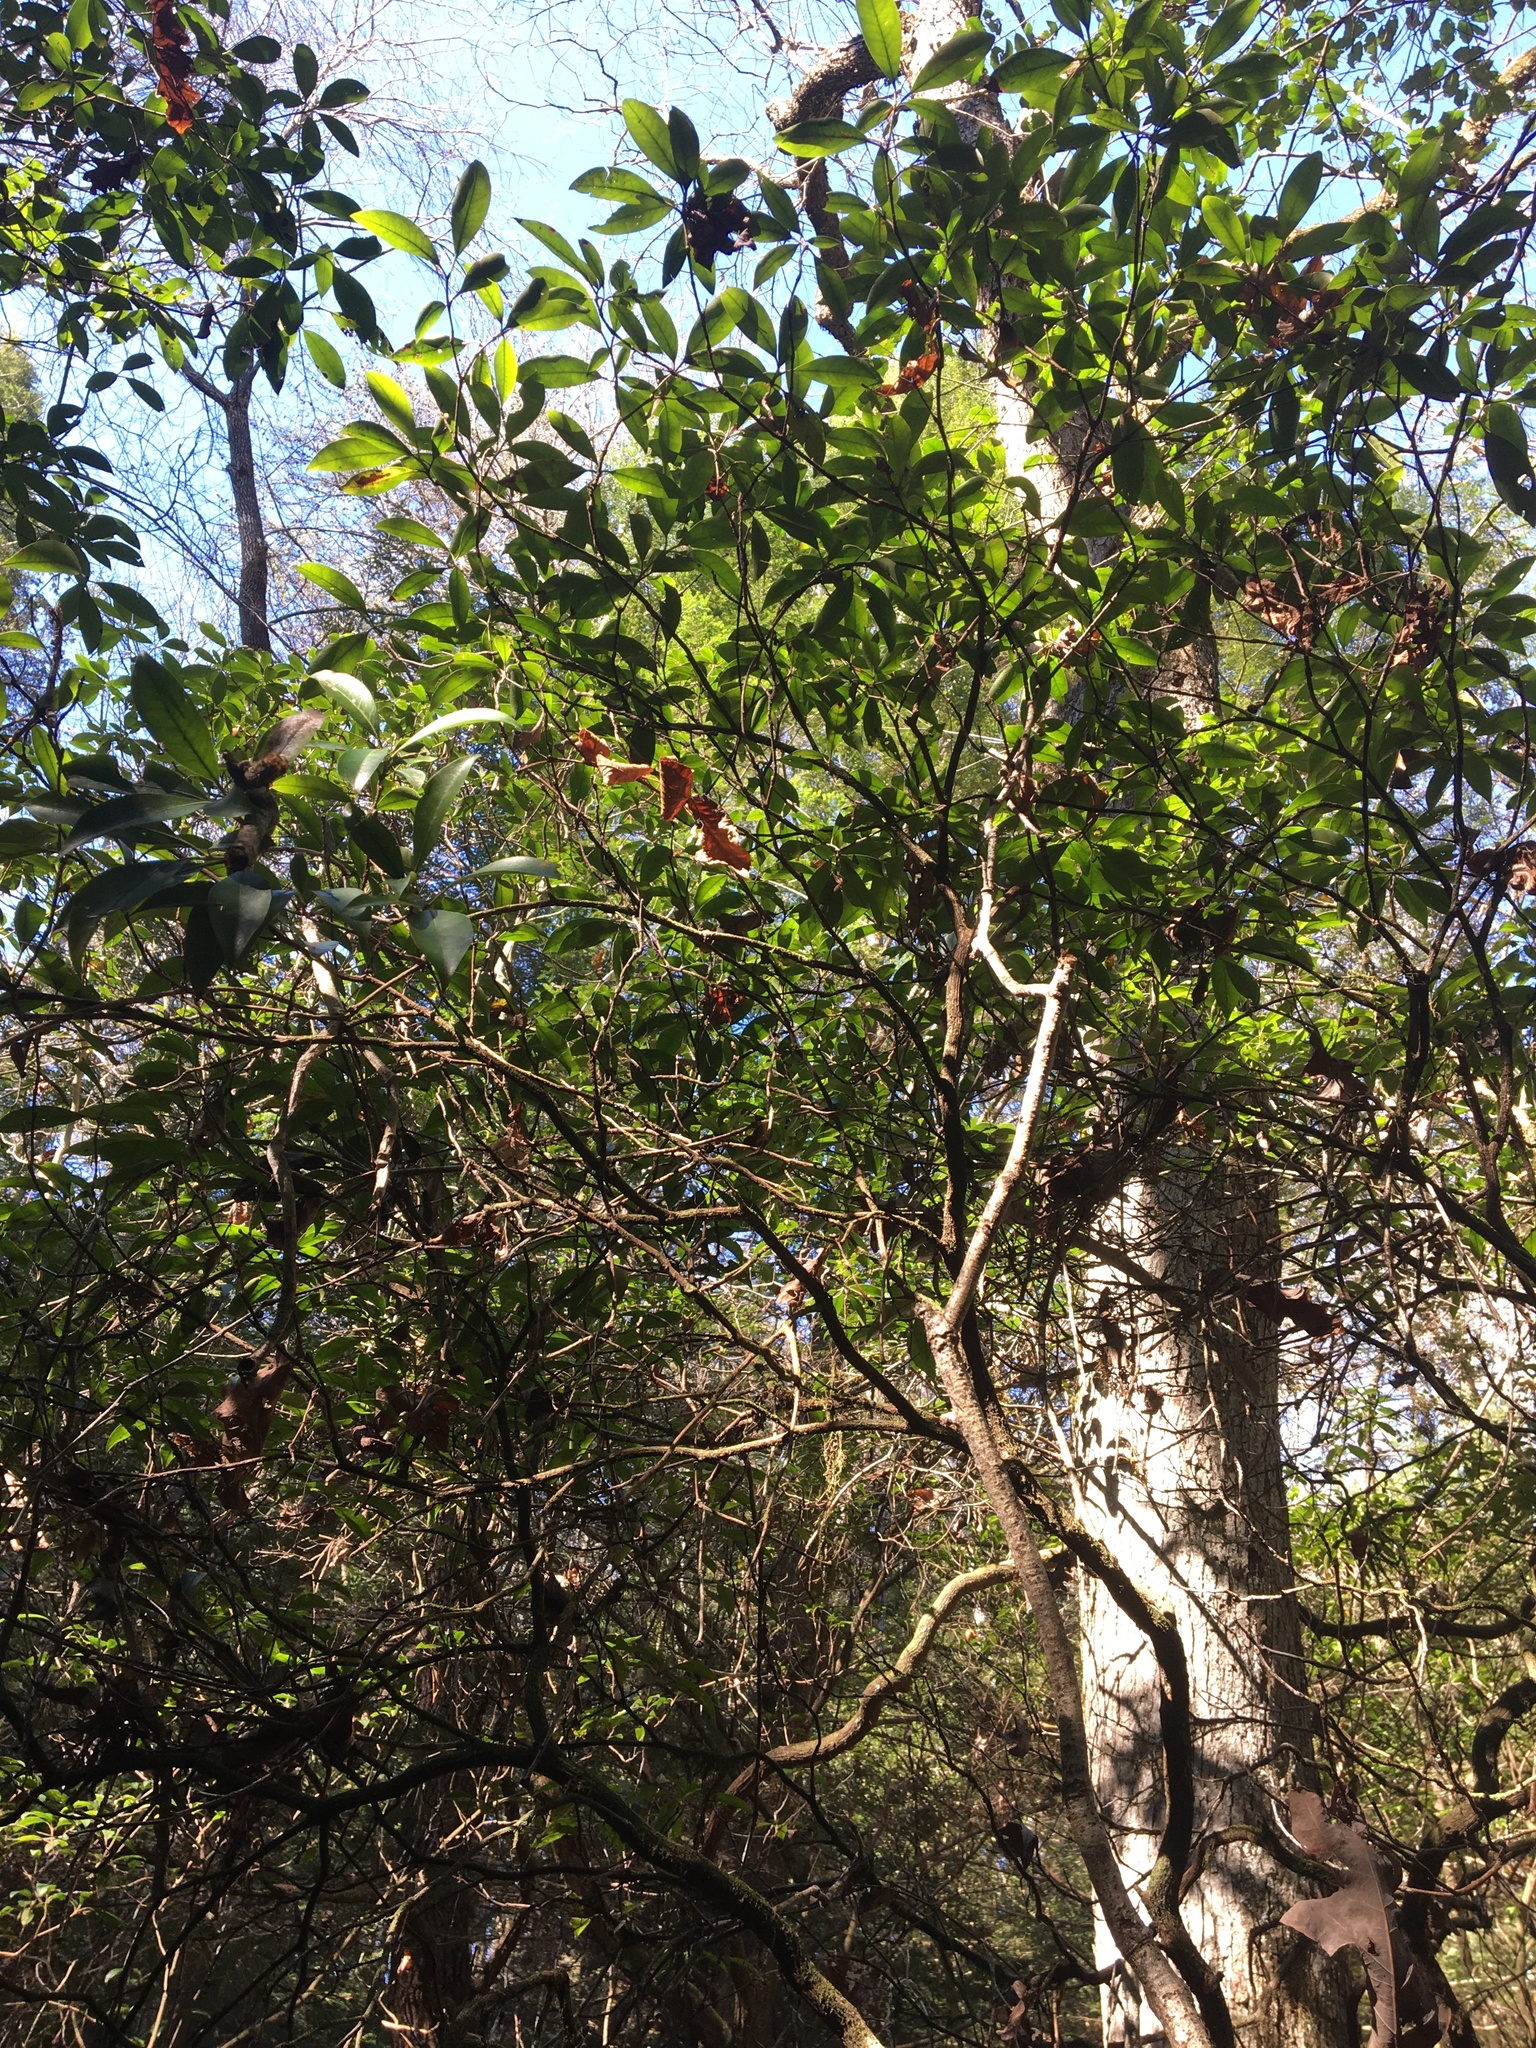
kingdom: Plantae
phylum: Tracheophyta
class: Magnoliopsida
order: Ericales
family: Ericaceae
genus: Kalmia
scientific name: Kalmia latifolia
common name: Mountain-laurel
